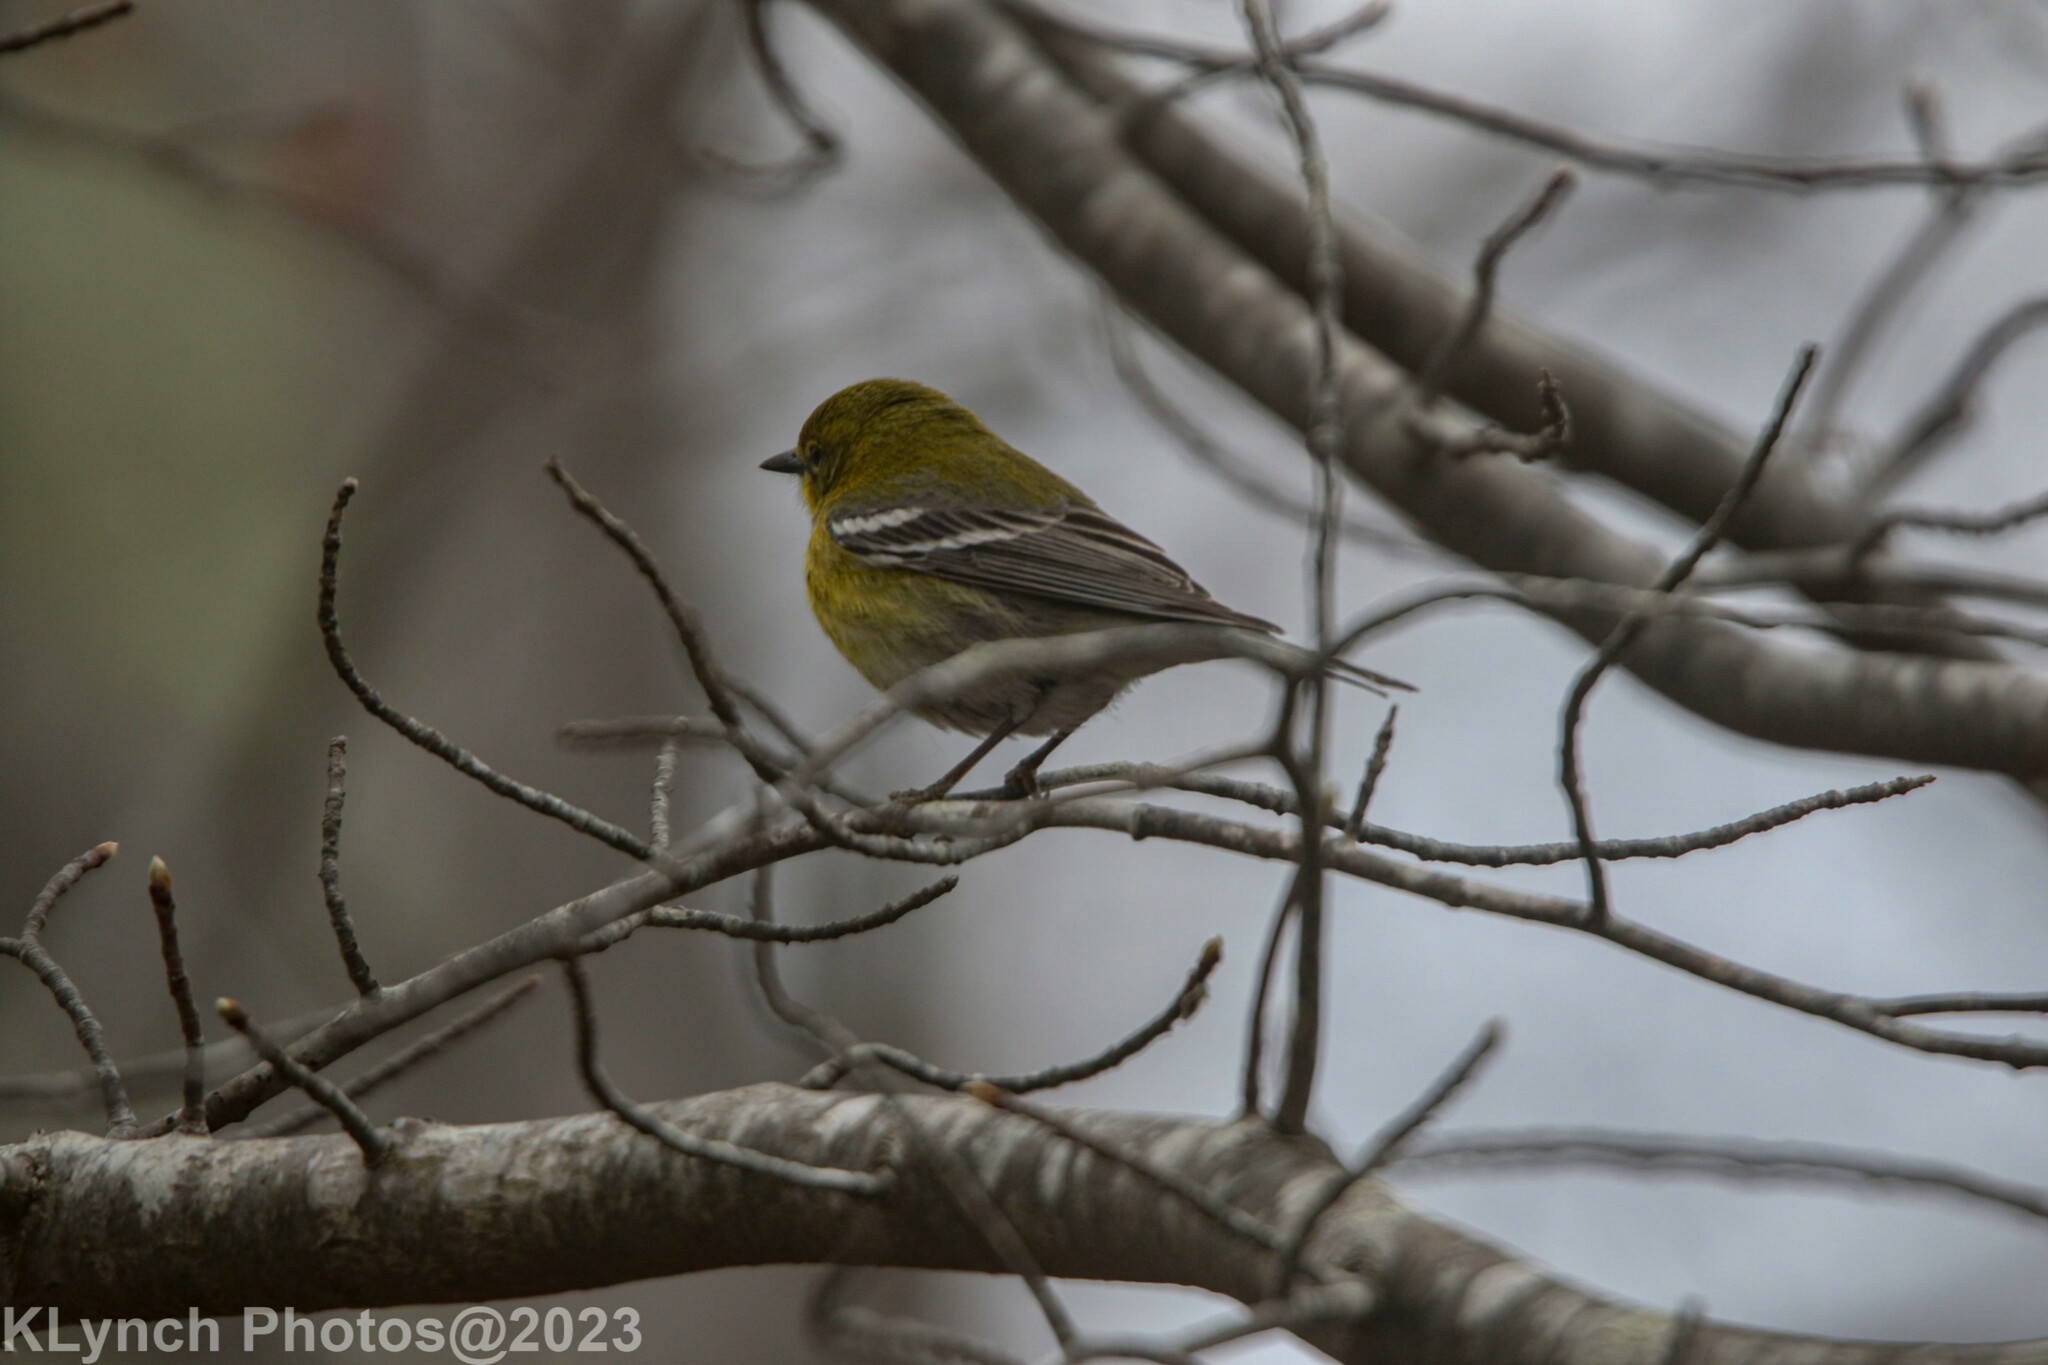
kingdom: Animalia
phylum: Chordata
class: Aves
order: Passeriformes
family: Parulidae
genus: Setophaga
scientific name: Setophaga pinus
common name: Pine warbler
